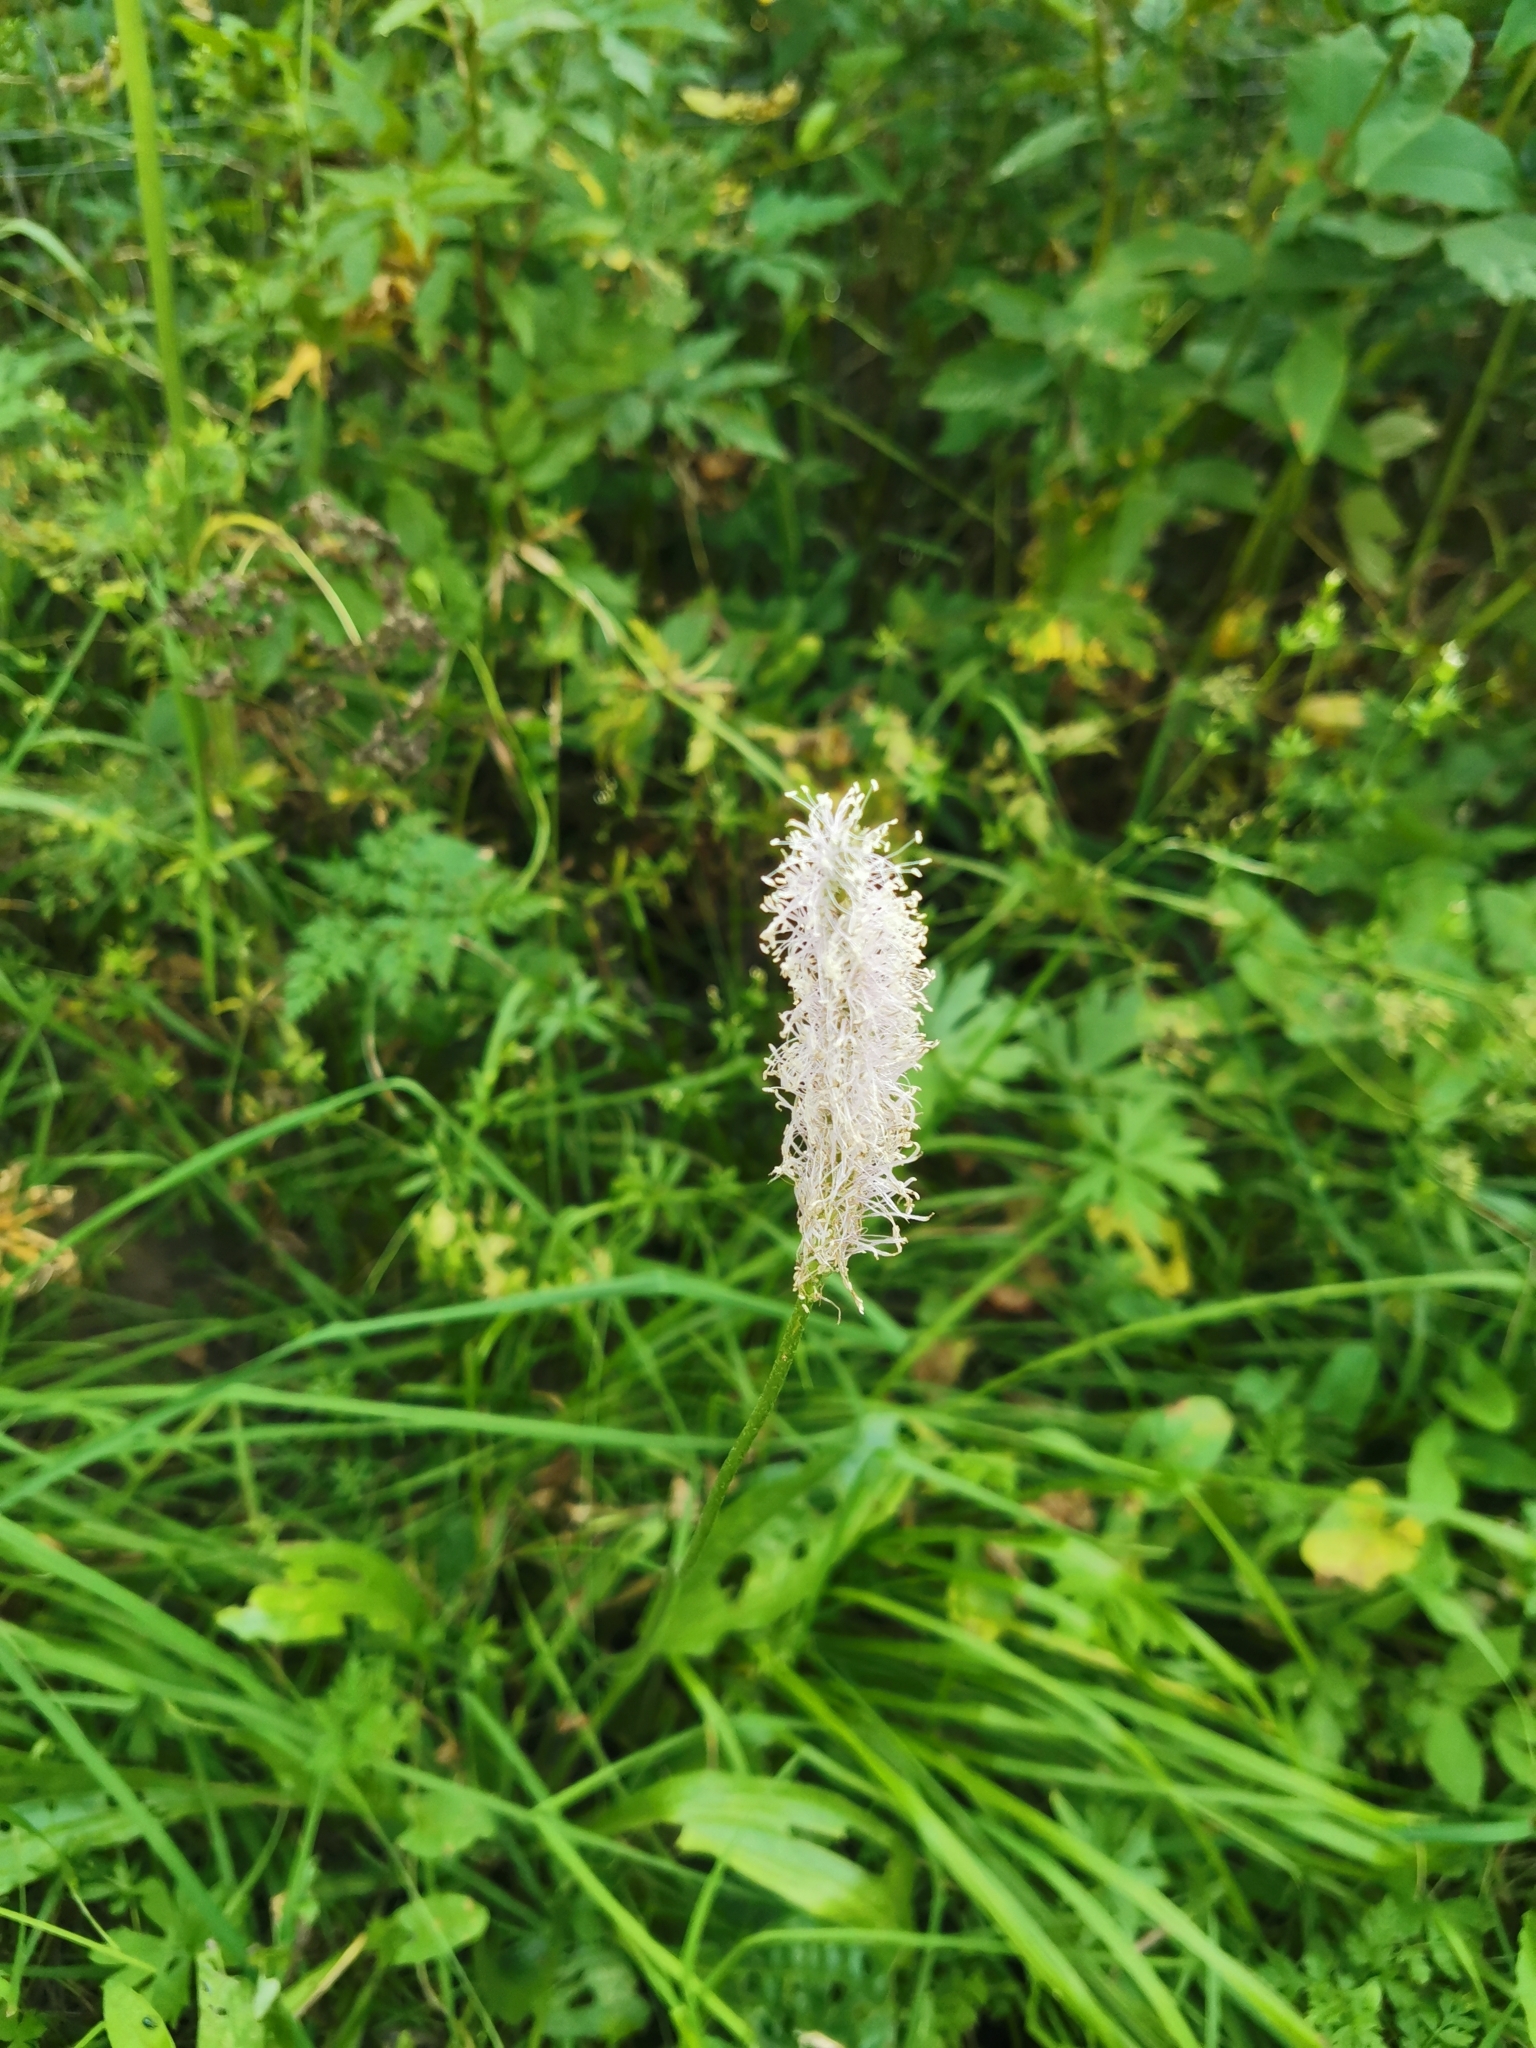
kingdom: Plantae
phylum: Tracheophyta
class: Magnoliopsida
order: Lamiales
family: Plantaginaceae
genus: Plantago
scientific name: Plantago media
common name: Hoary plantain
